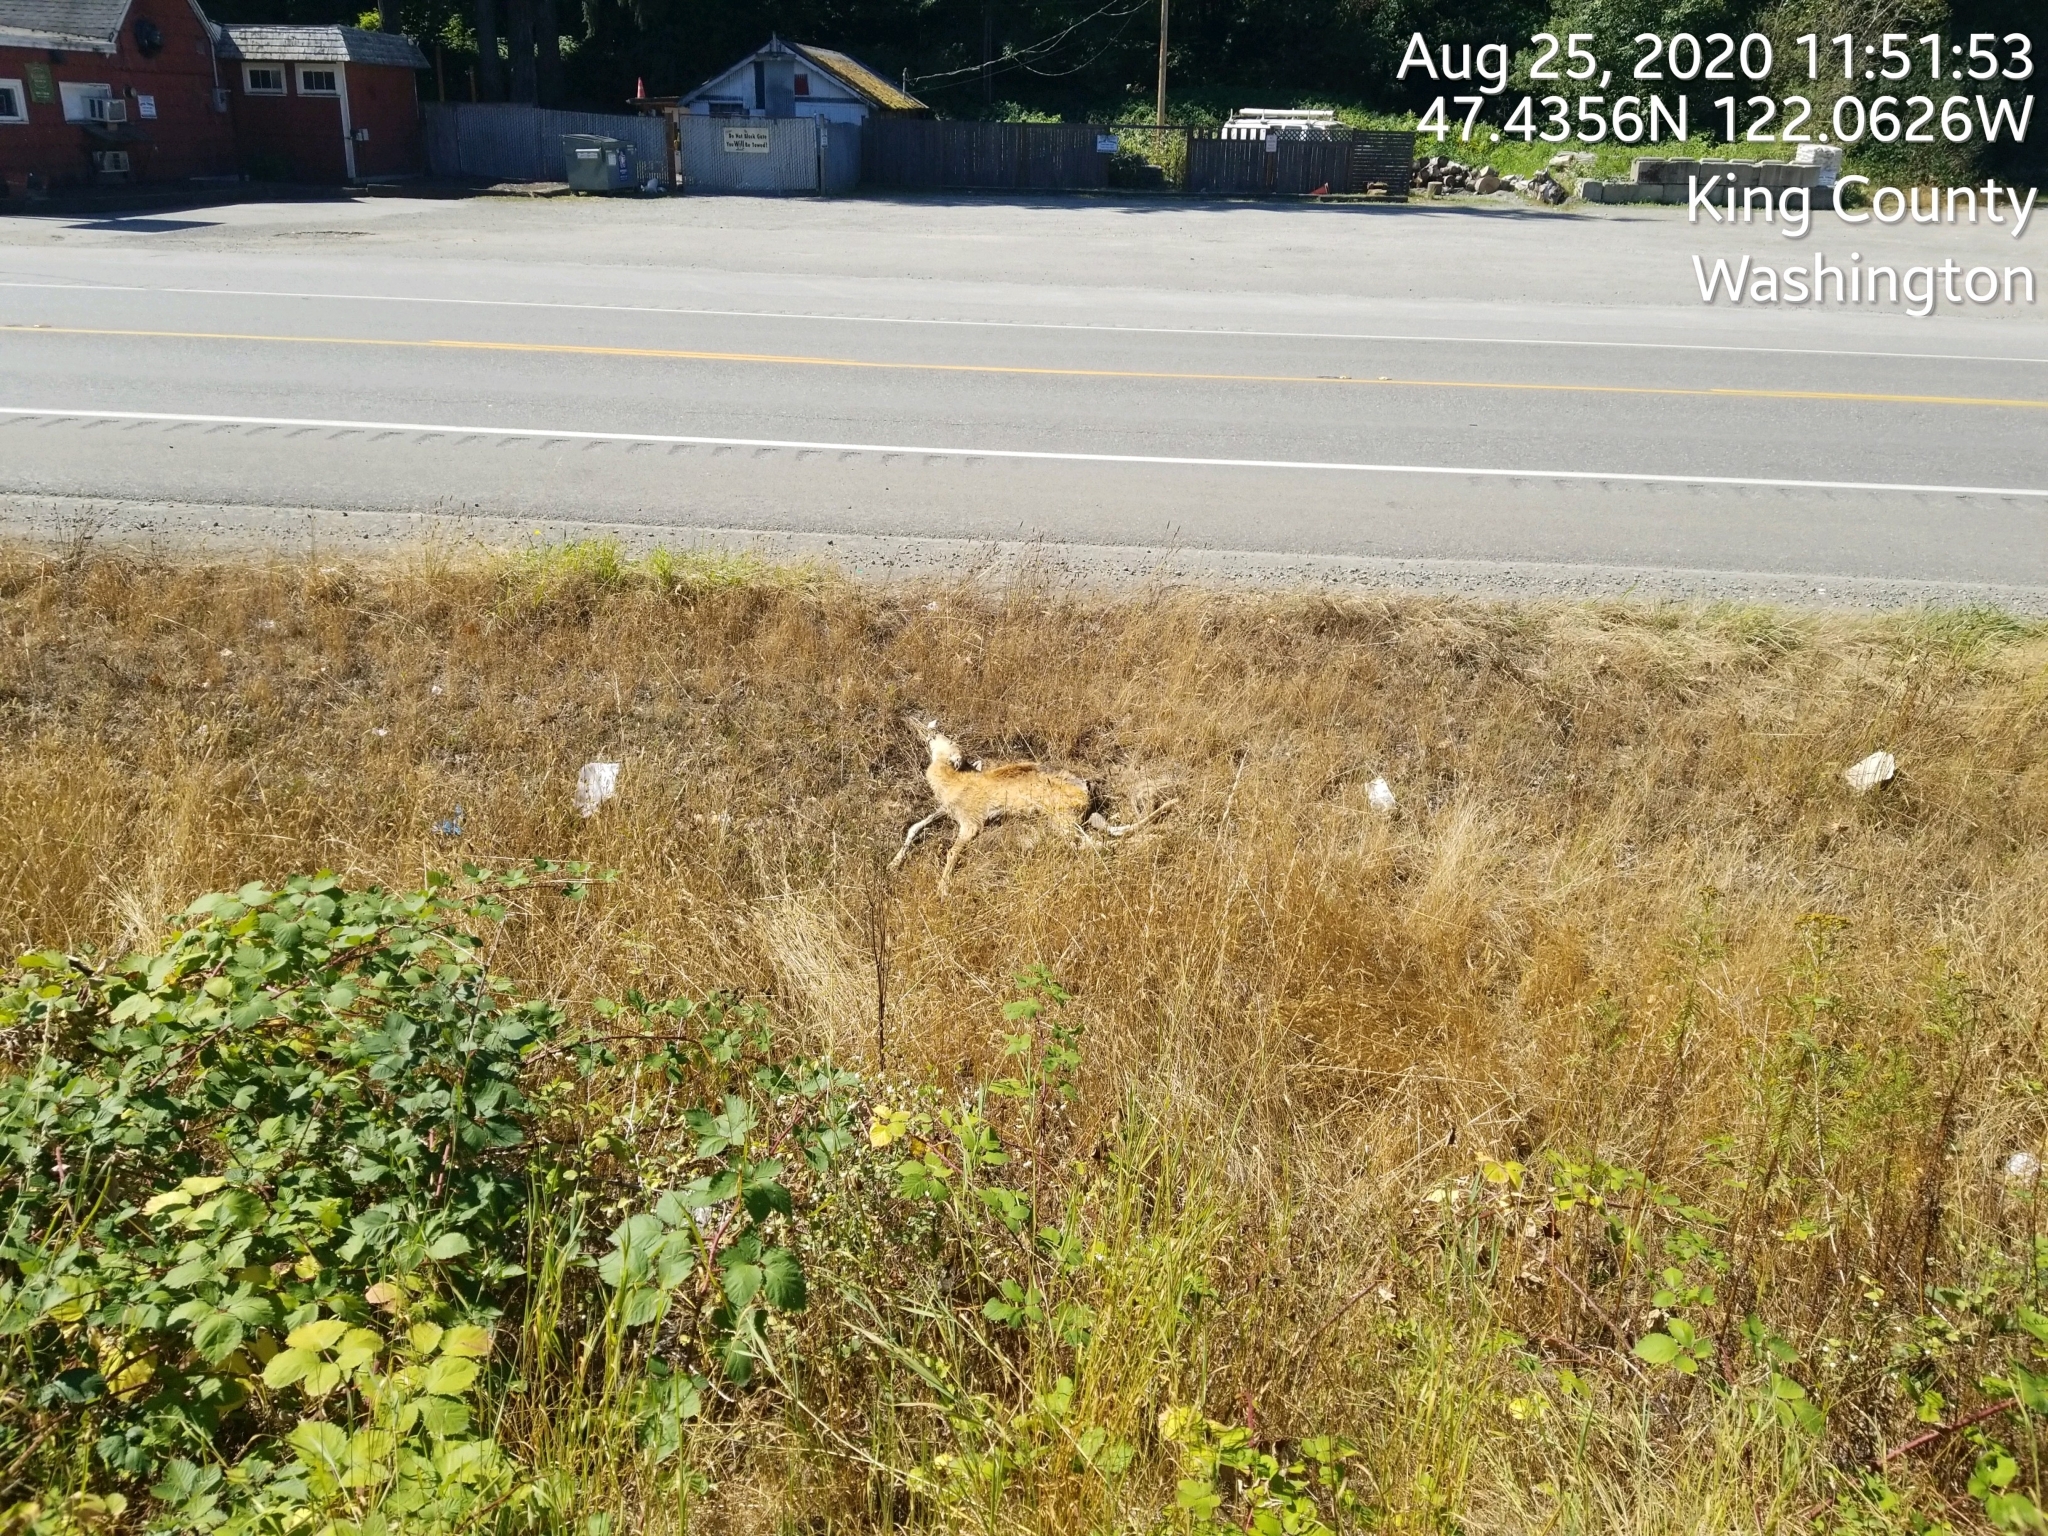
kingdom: Animalia
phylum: Chordata
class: Mammalia
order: Artiodactyla
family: Cervidae
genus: Odocoileus
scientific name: Odocoileus hemionus
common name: Mule deer
